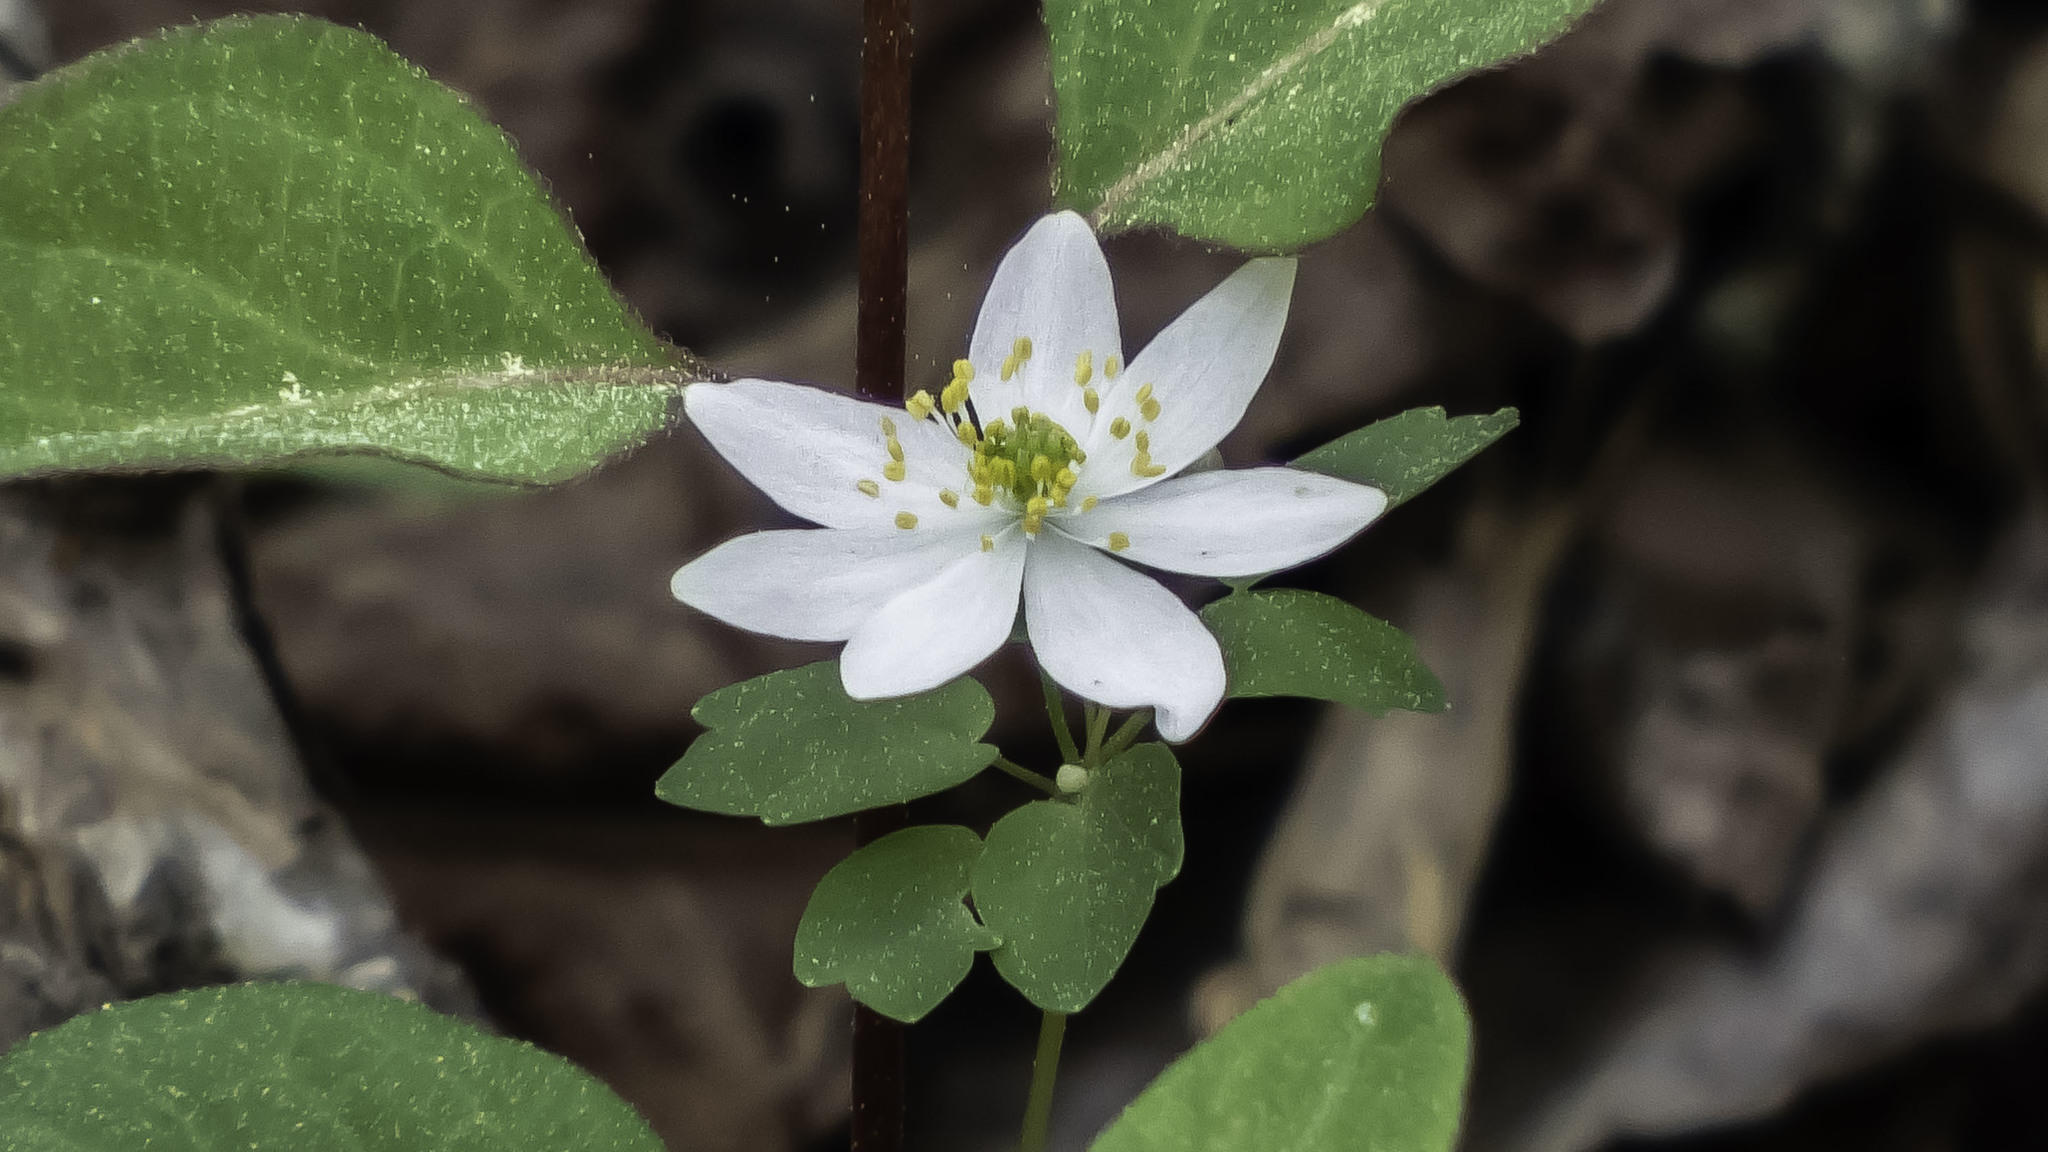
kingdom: Plantae
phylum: Tracheophyta
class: Magnoliopsida
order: Ranunculales
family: Ranunculaceae
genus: Thalictrum
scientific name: Thalictrum thalictroides
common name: Rue-anemone
